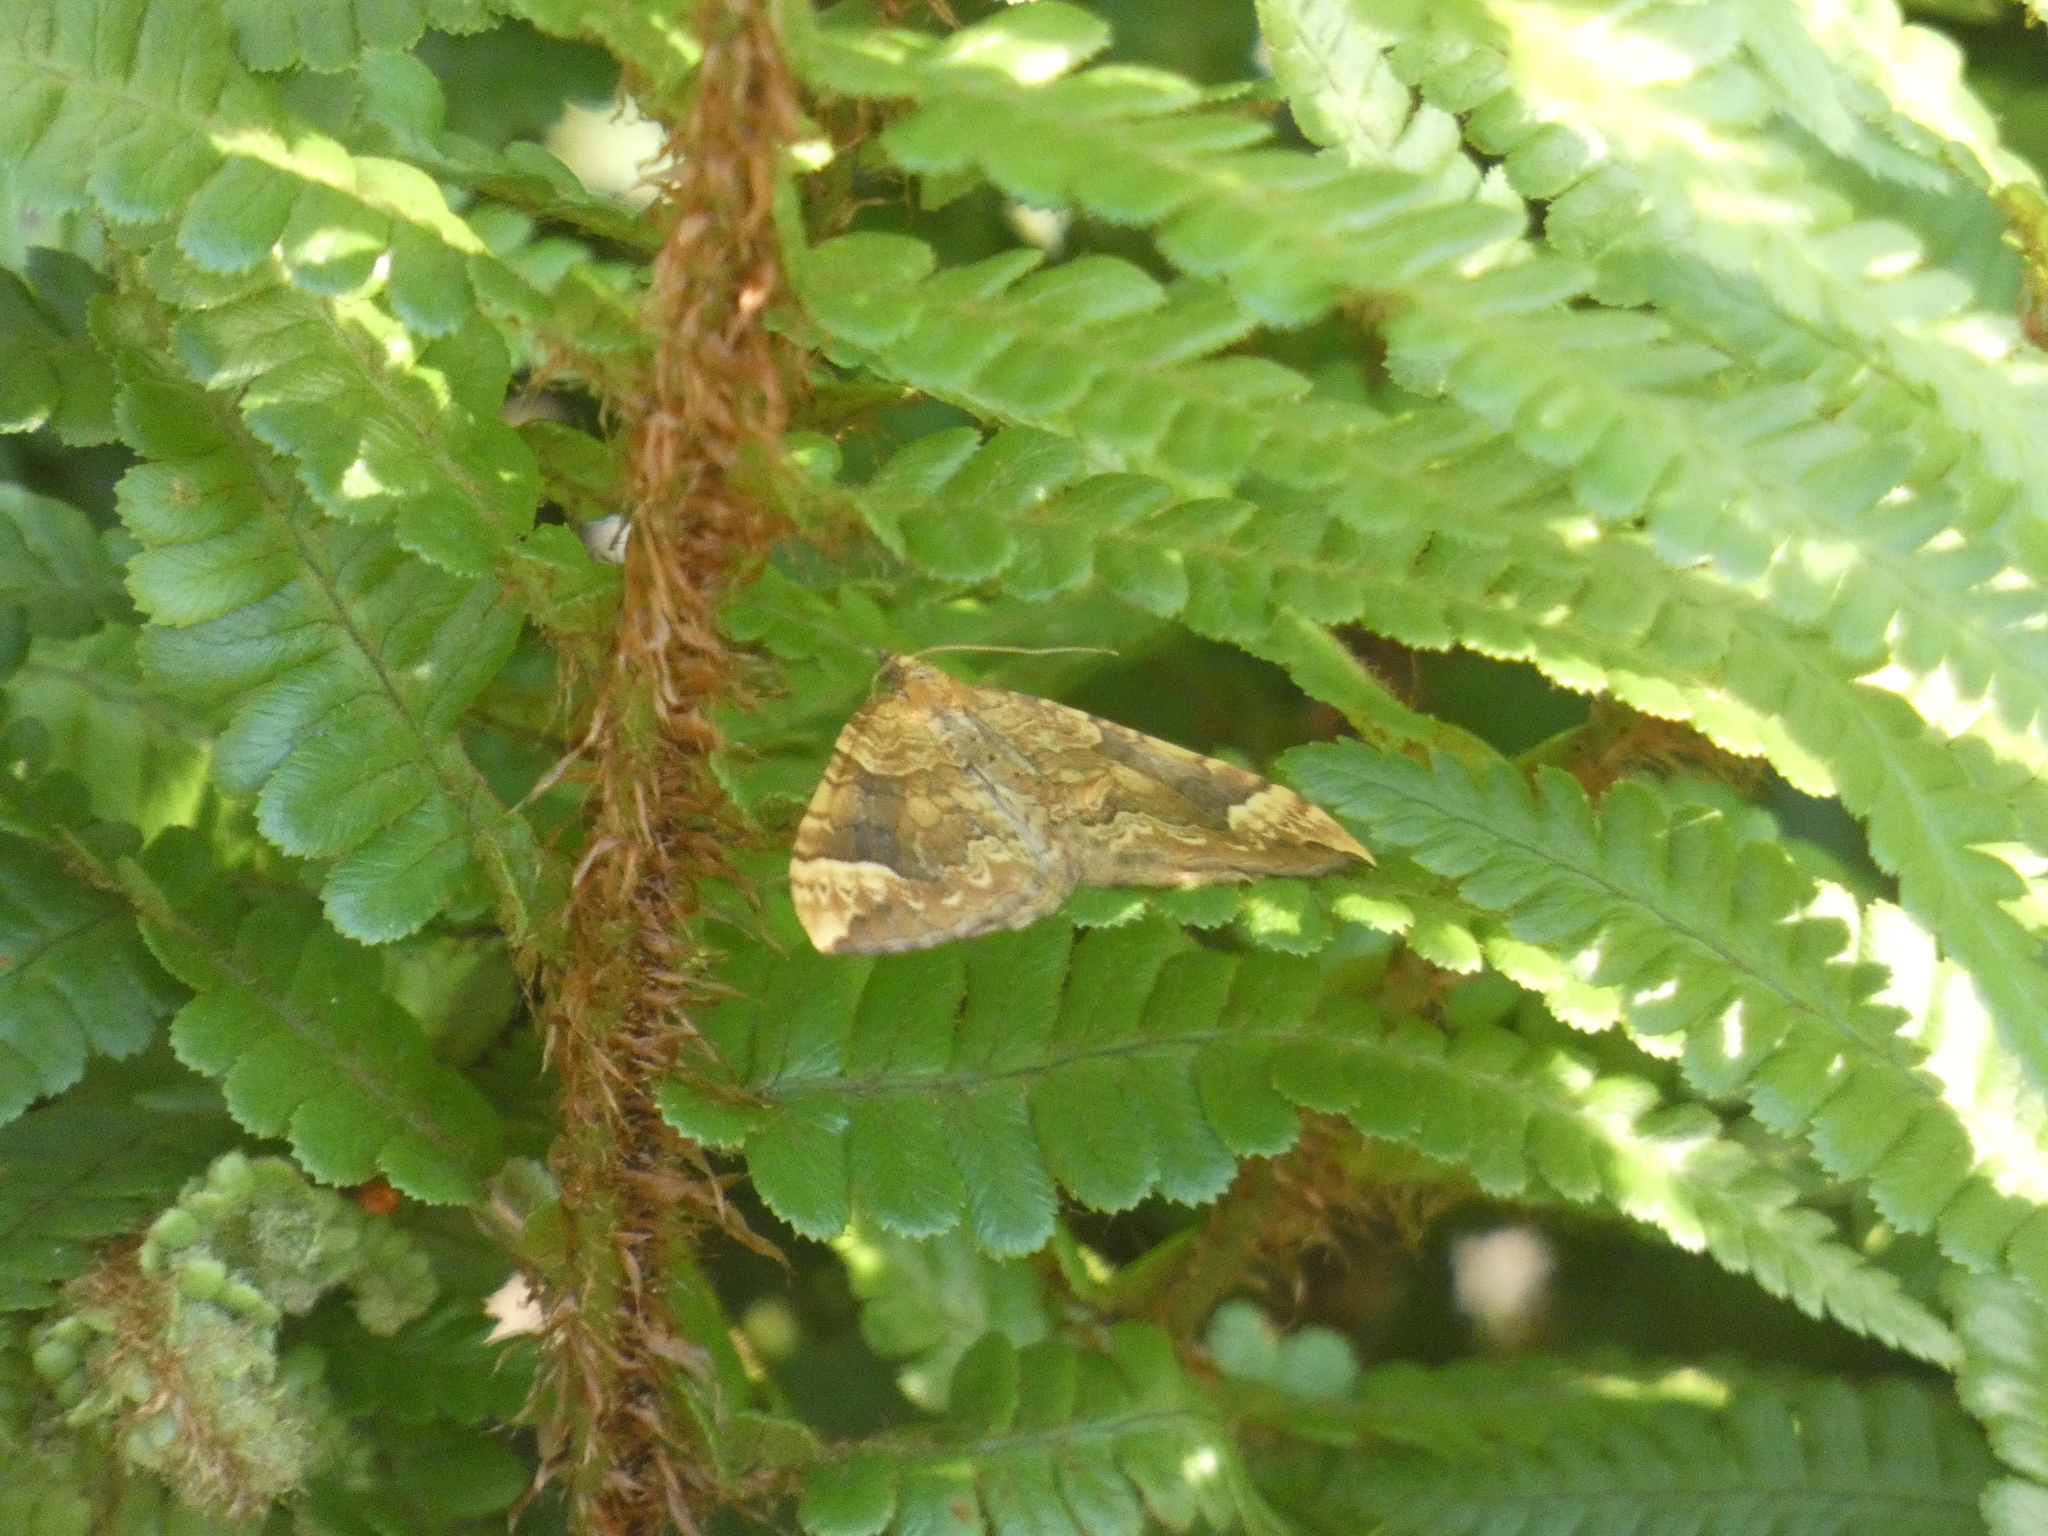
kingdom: Animalia
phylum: Arthropoda
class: Insecta
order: Lepidoptera
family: Geometridae
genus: Eulithis
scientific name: Eulithis populata
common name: Northern spinach
